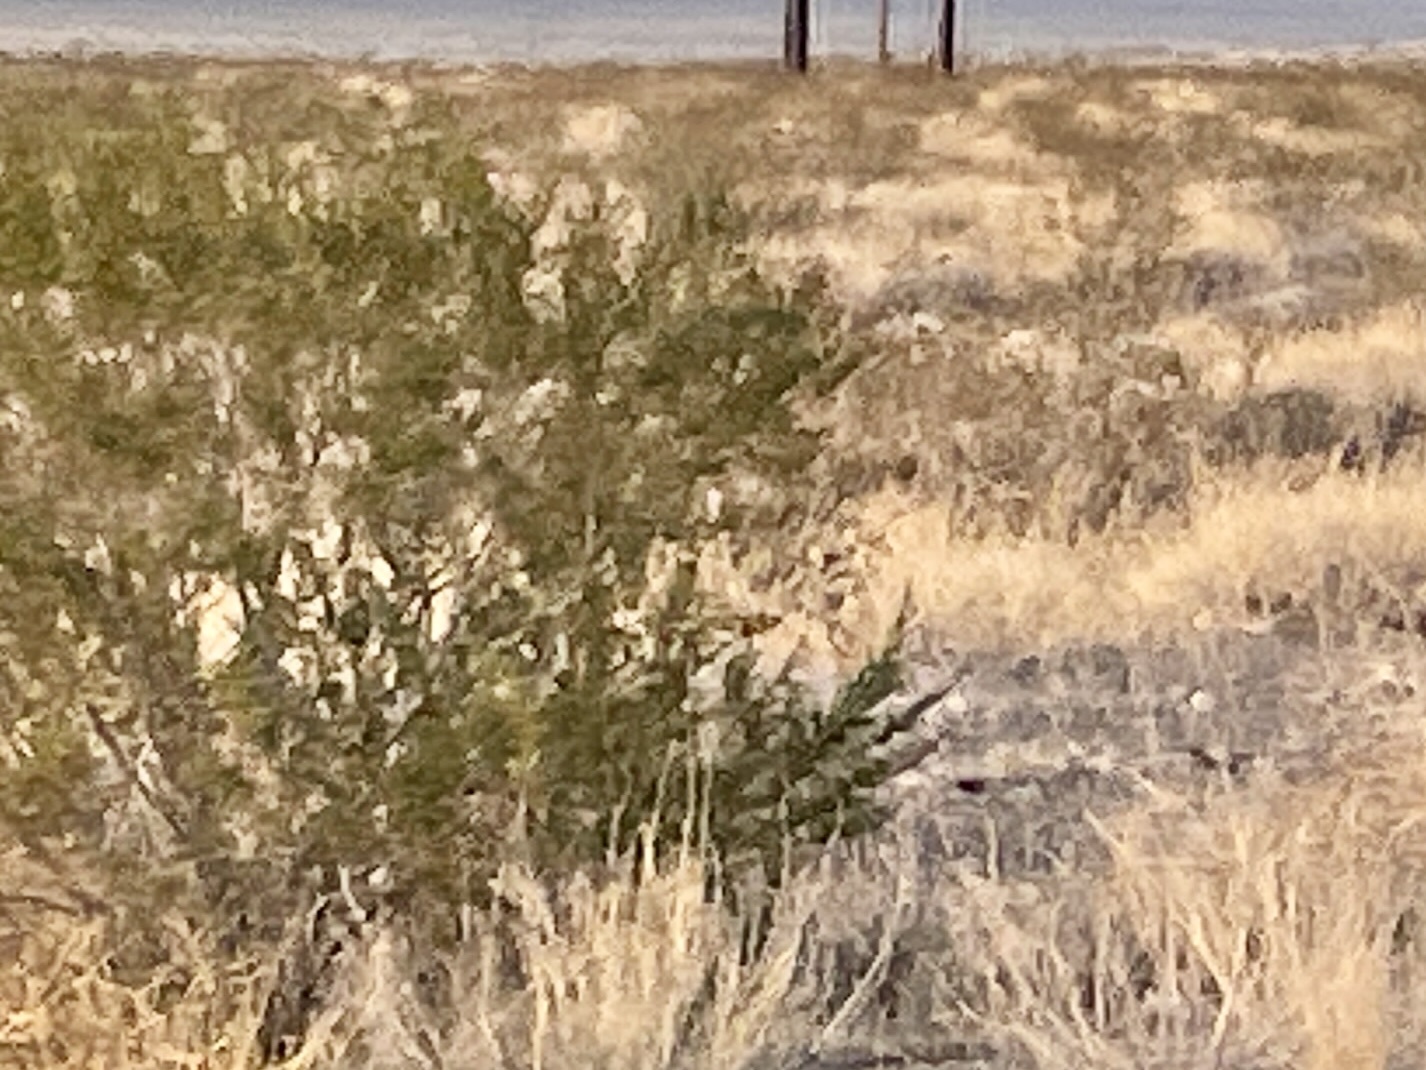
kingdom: Plantae
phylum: Tracheophyta
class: Magnoliopsida
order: Zygophyllales
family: Zygophyllaceae
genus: Larrea
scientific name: Larrea tridentata
